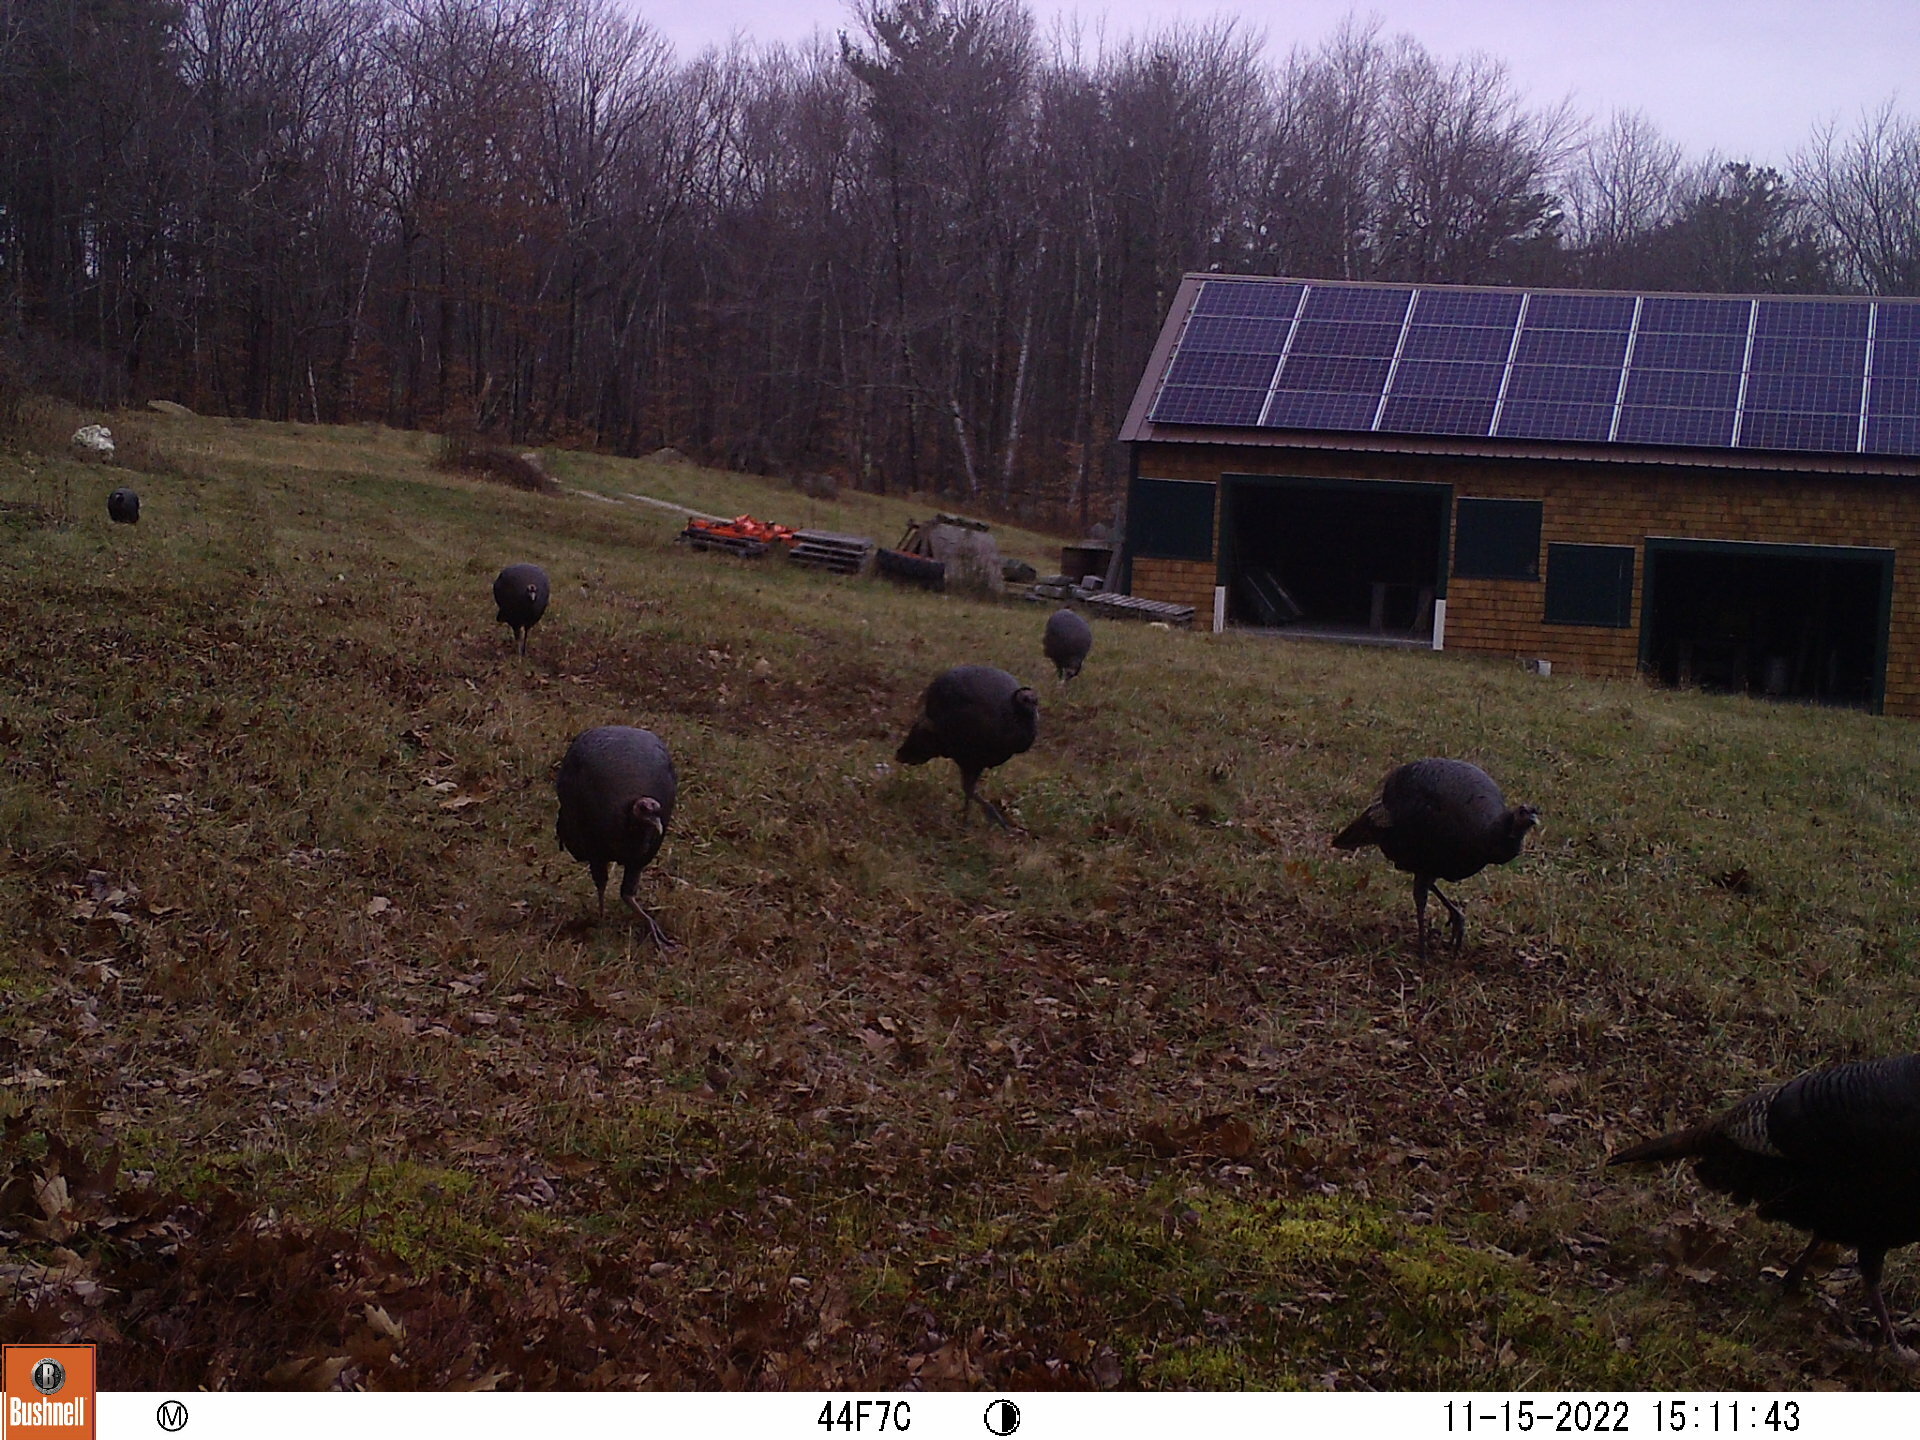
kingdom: Animalia
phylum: Chordata
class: Aves
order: Galliformes
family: Phasianidae
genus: Meleagris
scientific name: Meleagris gallopavo
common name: Wild turkey
